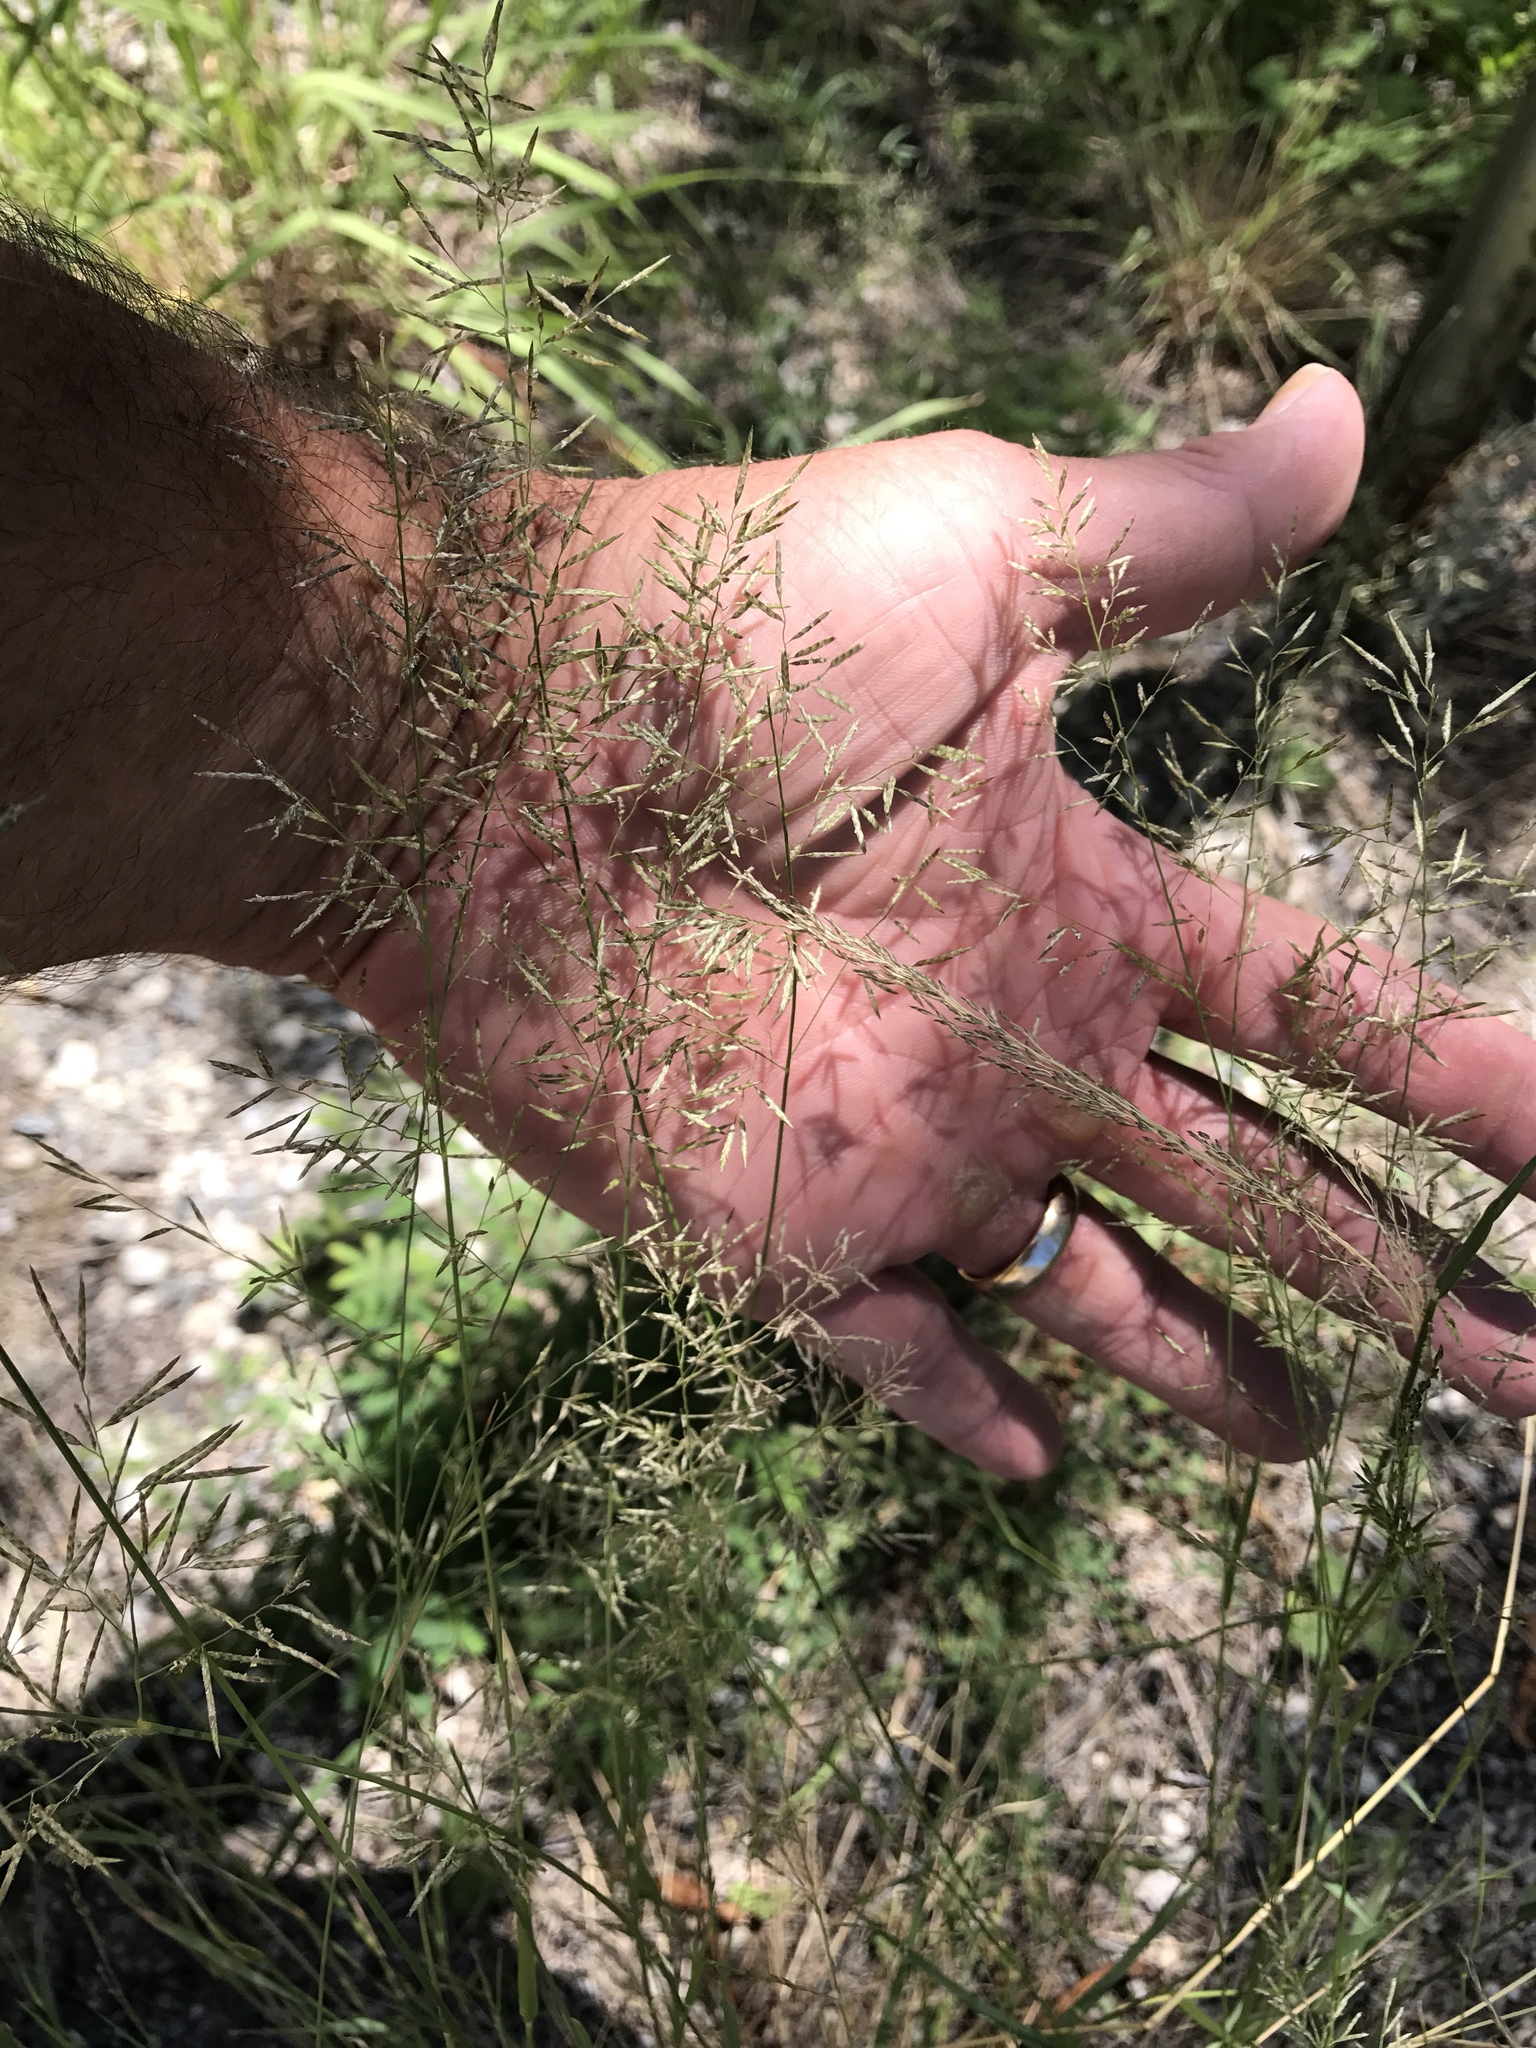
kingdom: Plantae
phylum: Tracheophyta
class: Liliopsida
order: Poales
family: Poaceae
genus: Eragrostis
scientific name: Eragrostis lehmanniana
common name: Lehmann lovegrass
